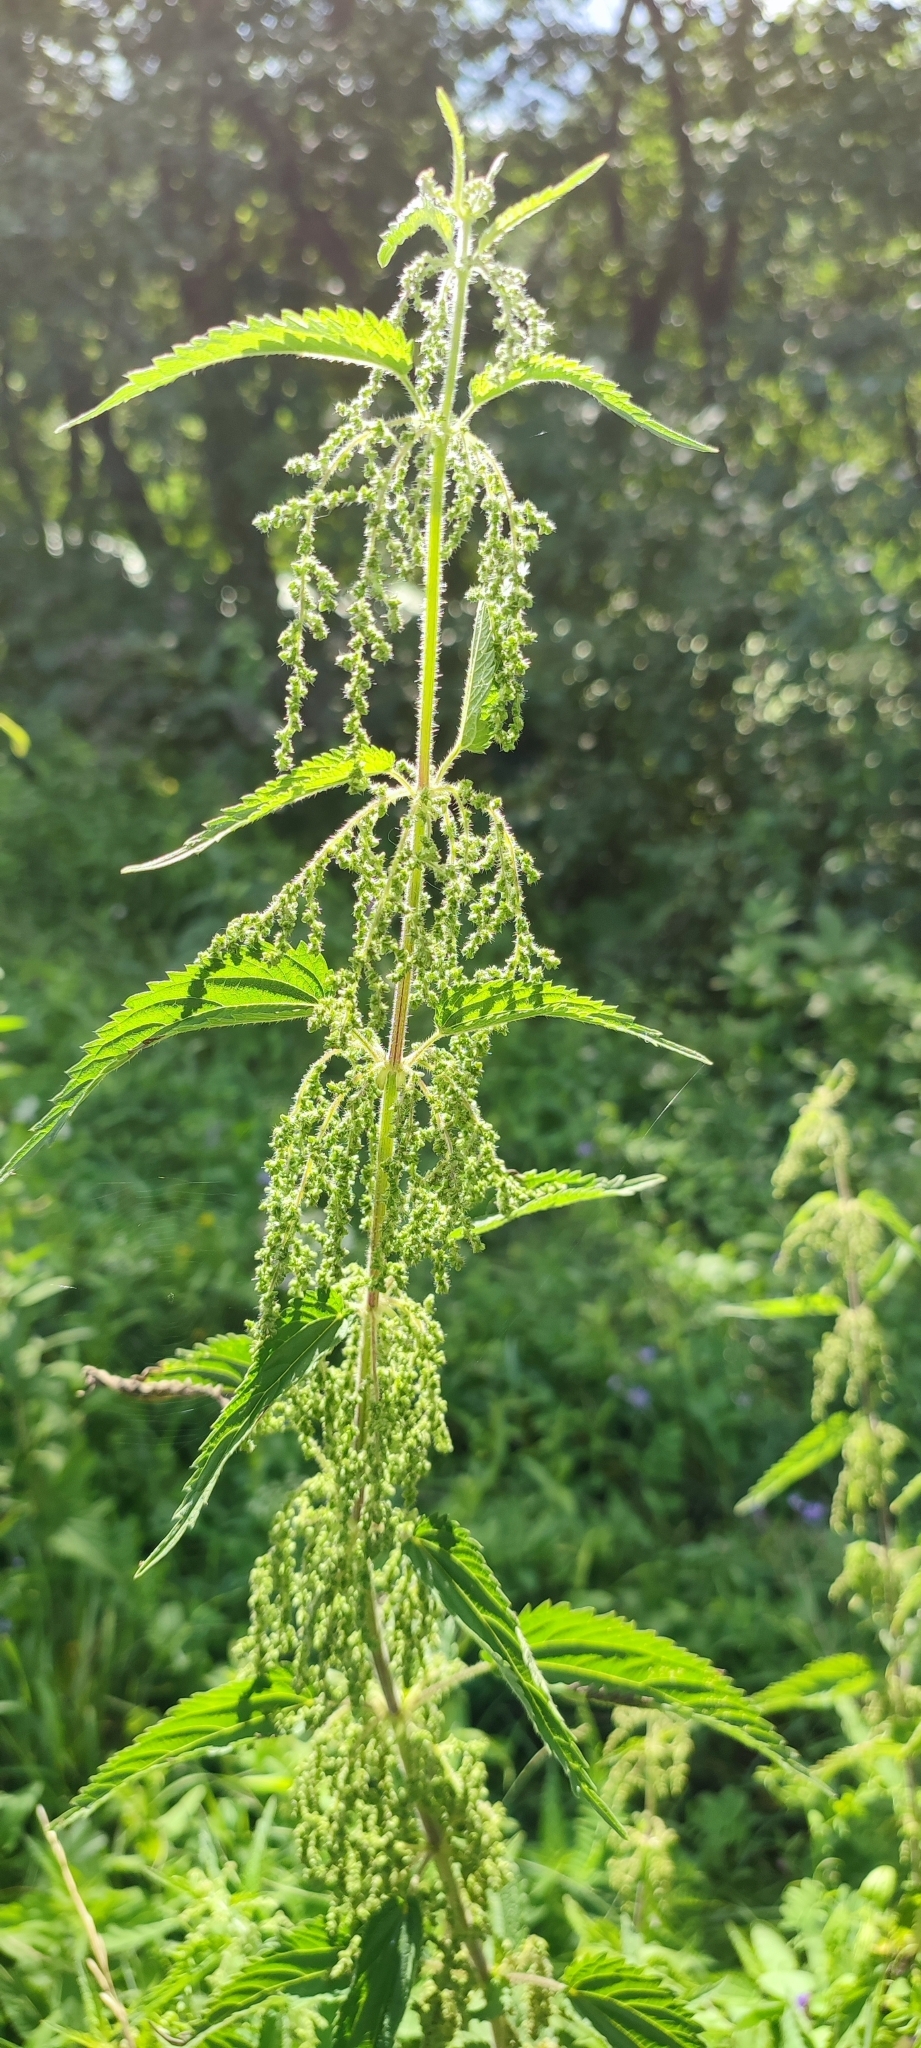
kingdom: Plantae
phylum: Tracheophyta
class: Magnoliopsida
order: Rosales
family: Urticaceae
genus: Urtica
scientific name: Urtica dioica
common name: Common nettle
